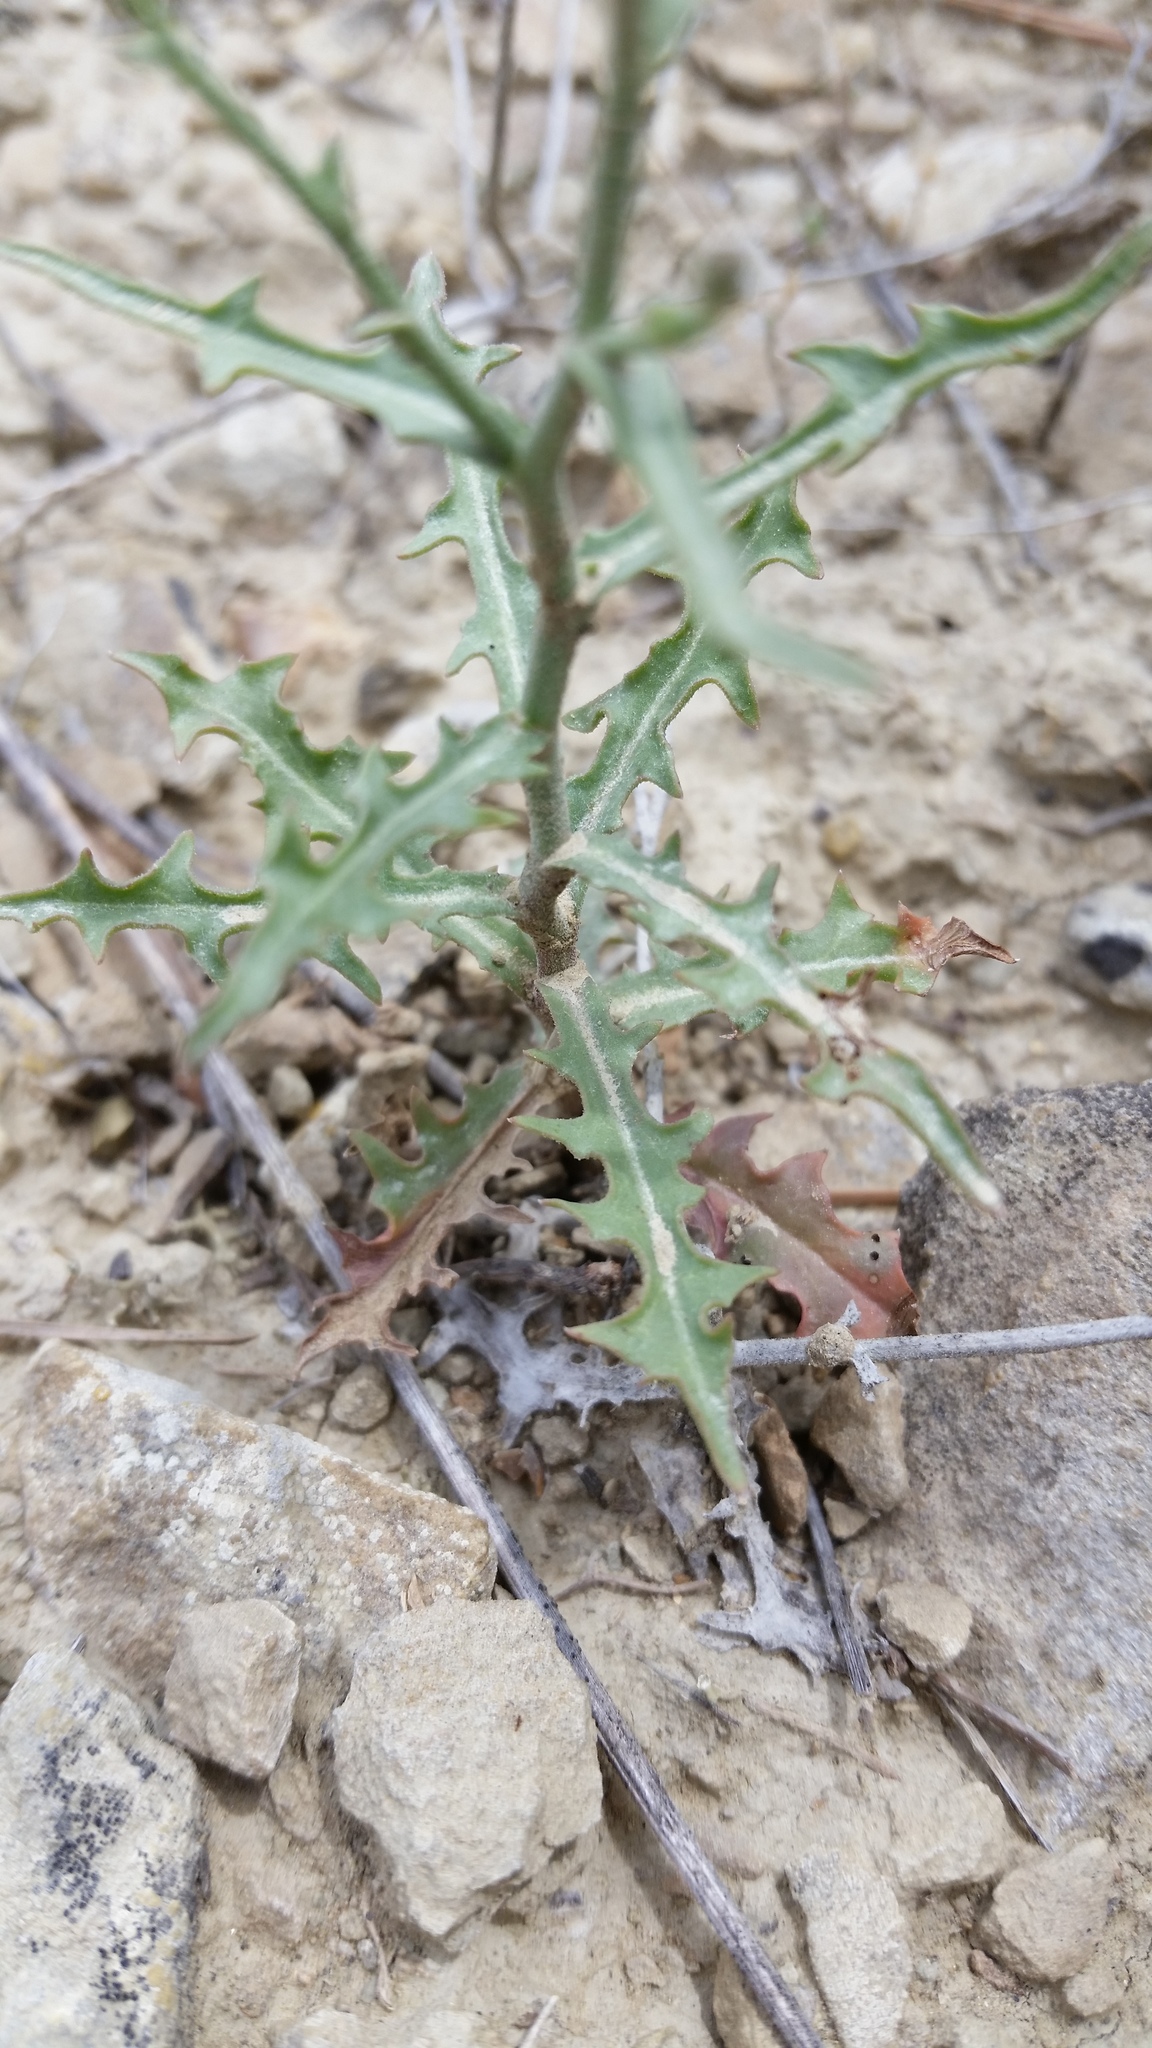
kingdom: Plantae
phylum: Tracheophyta
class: Magnoliopsida
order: Asterales
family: Asteraceae
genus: Stephanomeria
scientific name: Stephanomeria runcinata
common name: Desert wirelettuce
